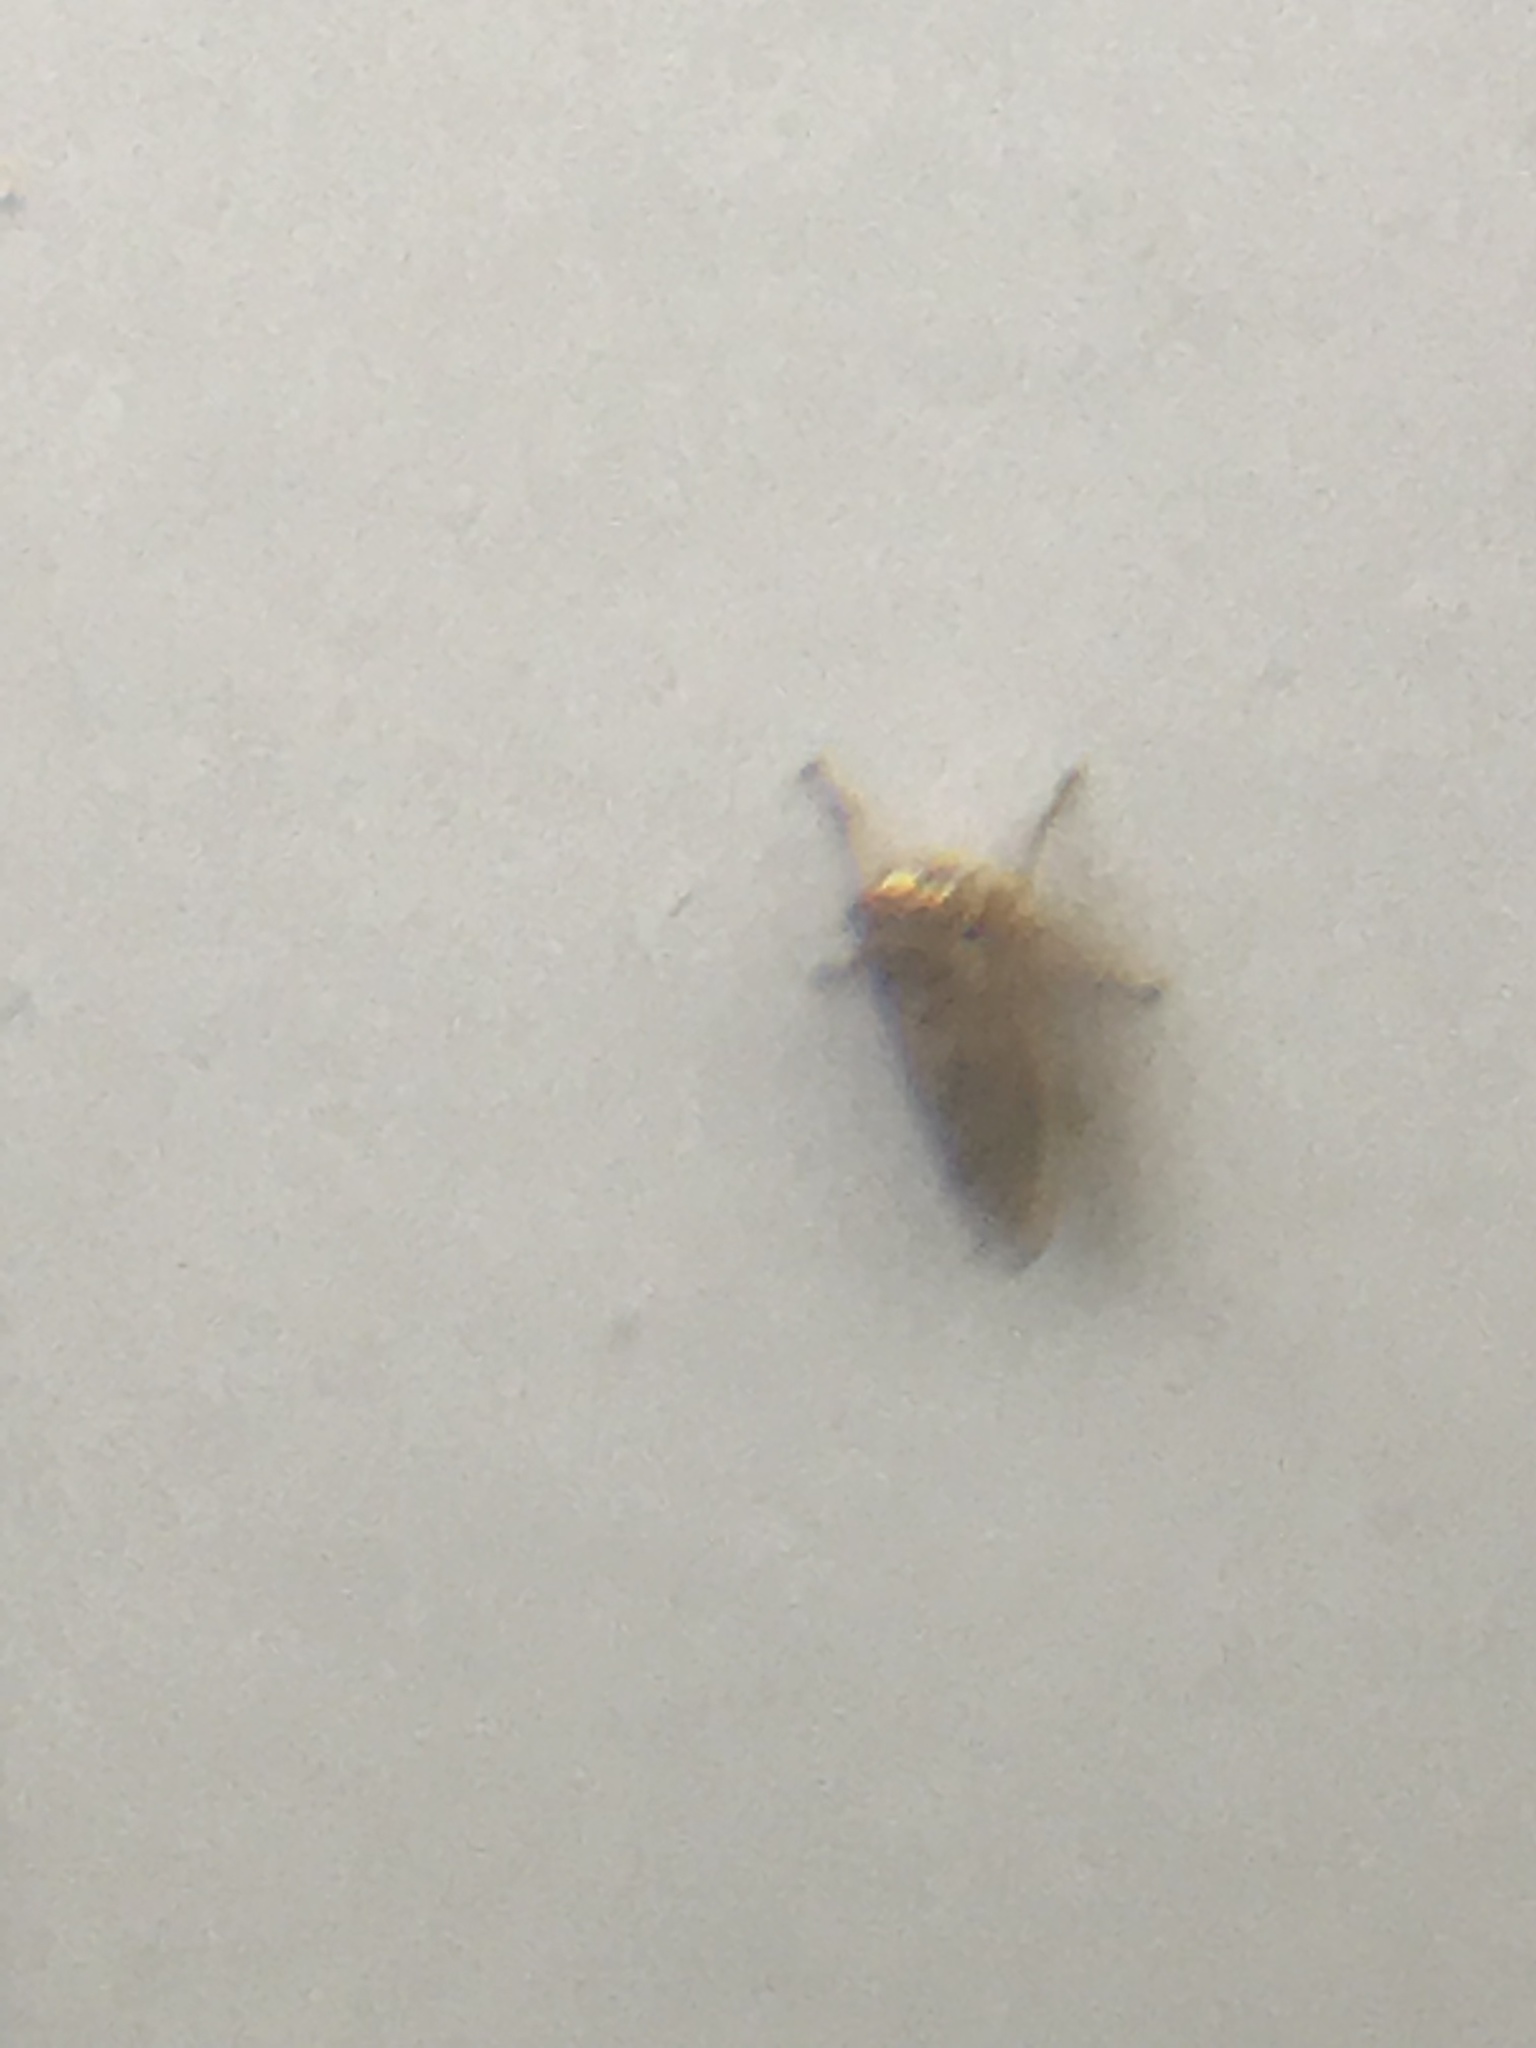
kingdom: Animalia
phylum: Arthropoda
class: Insecta
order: Hemiptera
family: Cicadellidae
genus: Exitianus
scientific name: Exitianus exitiosus
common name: Gray lawn leafhopper
